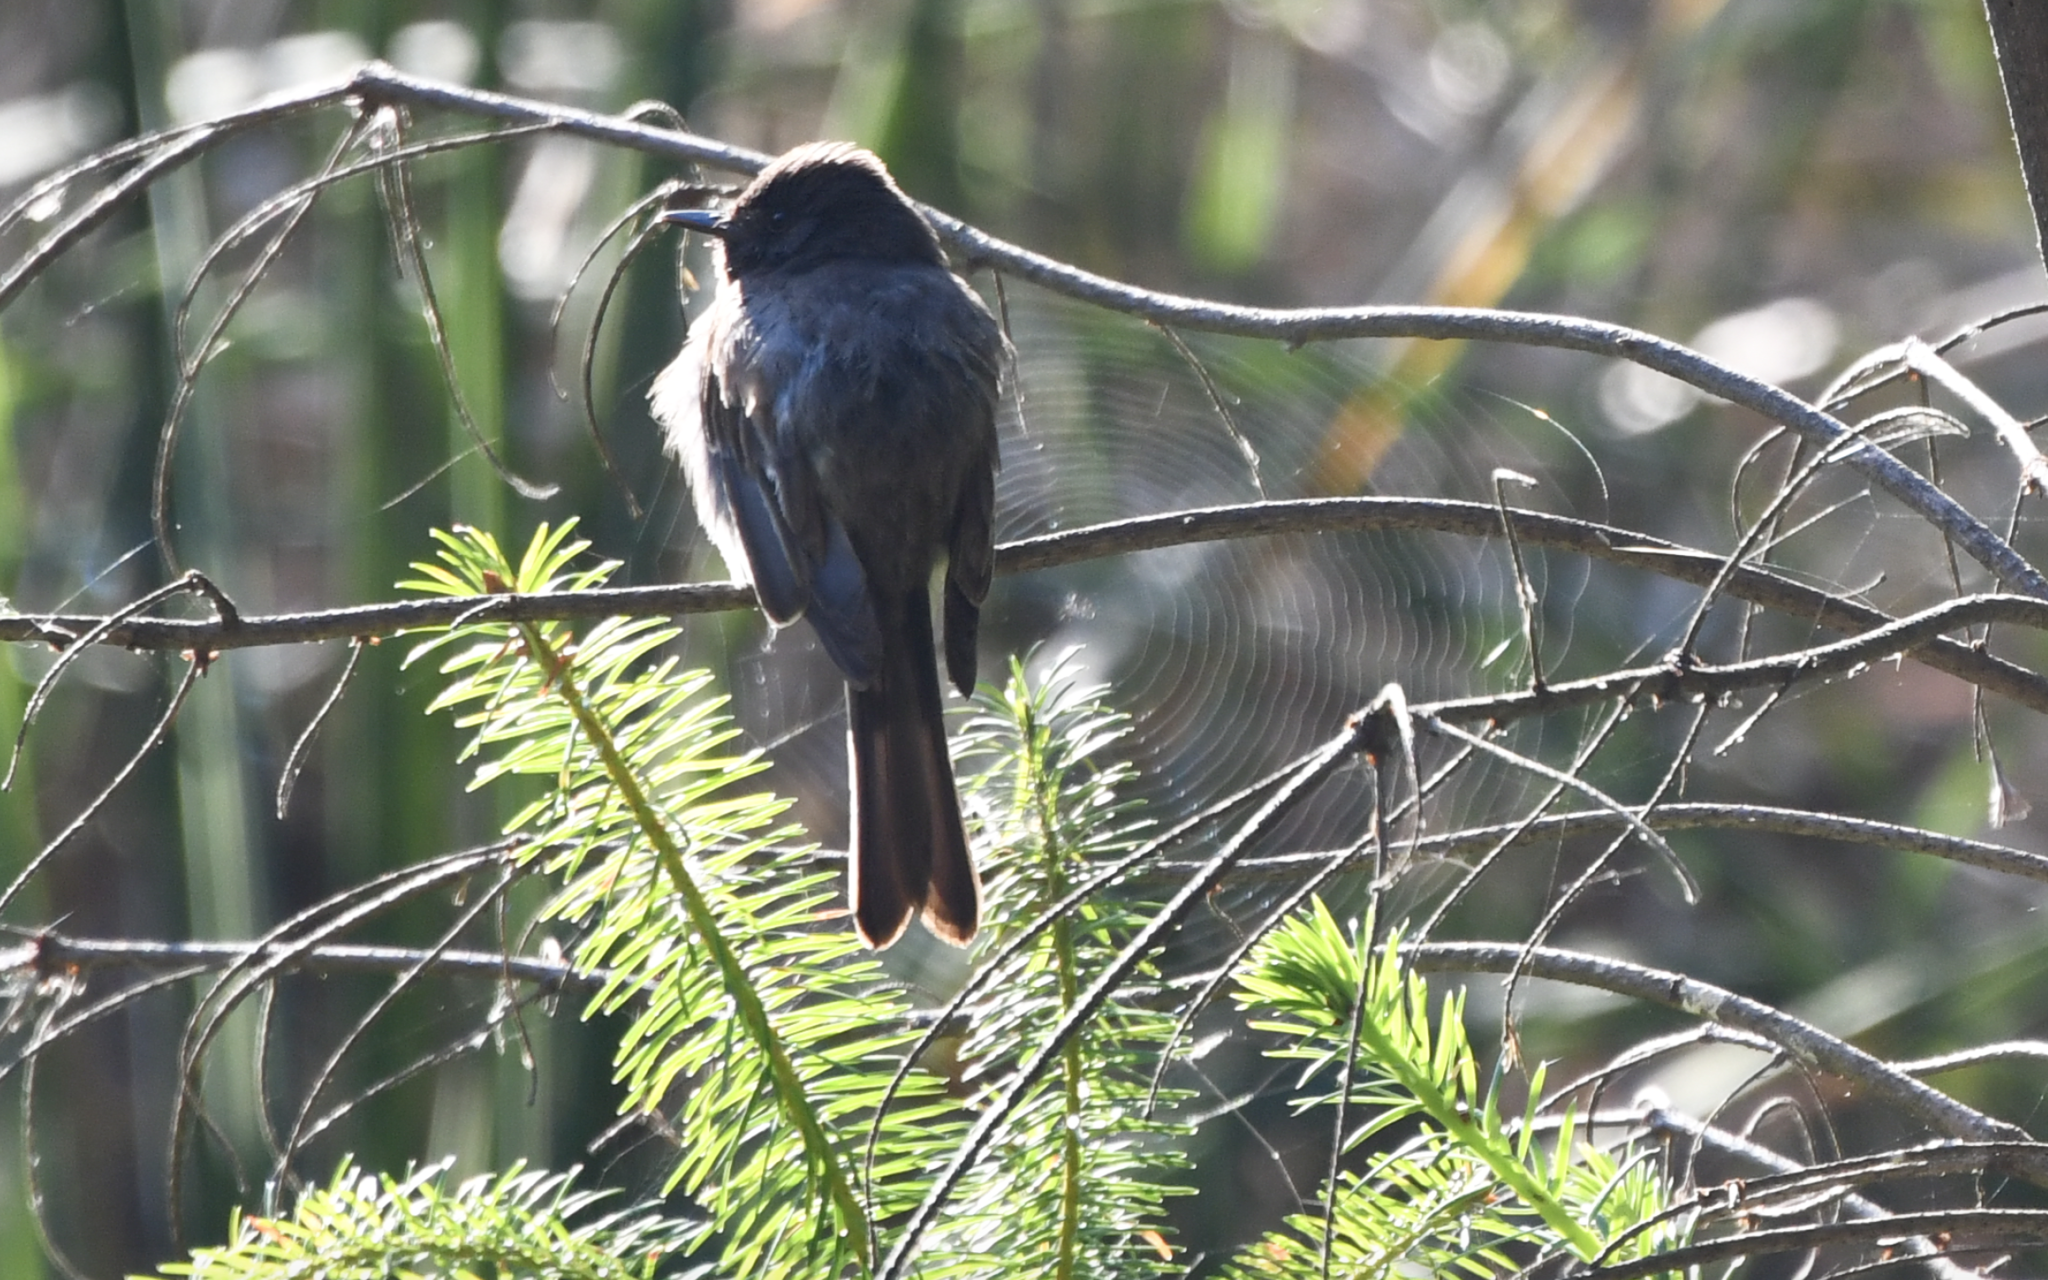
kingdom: Animalia
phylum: Chordata
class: Aves
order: Passeriformes
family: Tyrannidae
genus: Sayornis
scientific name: Sayornis nigricans
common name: Black phoebe
